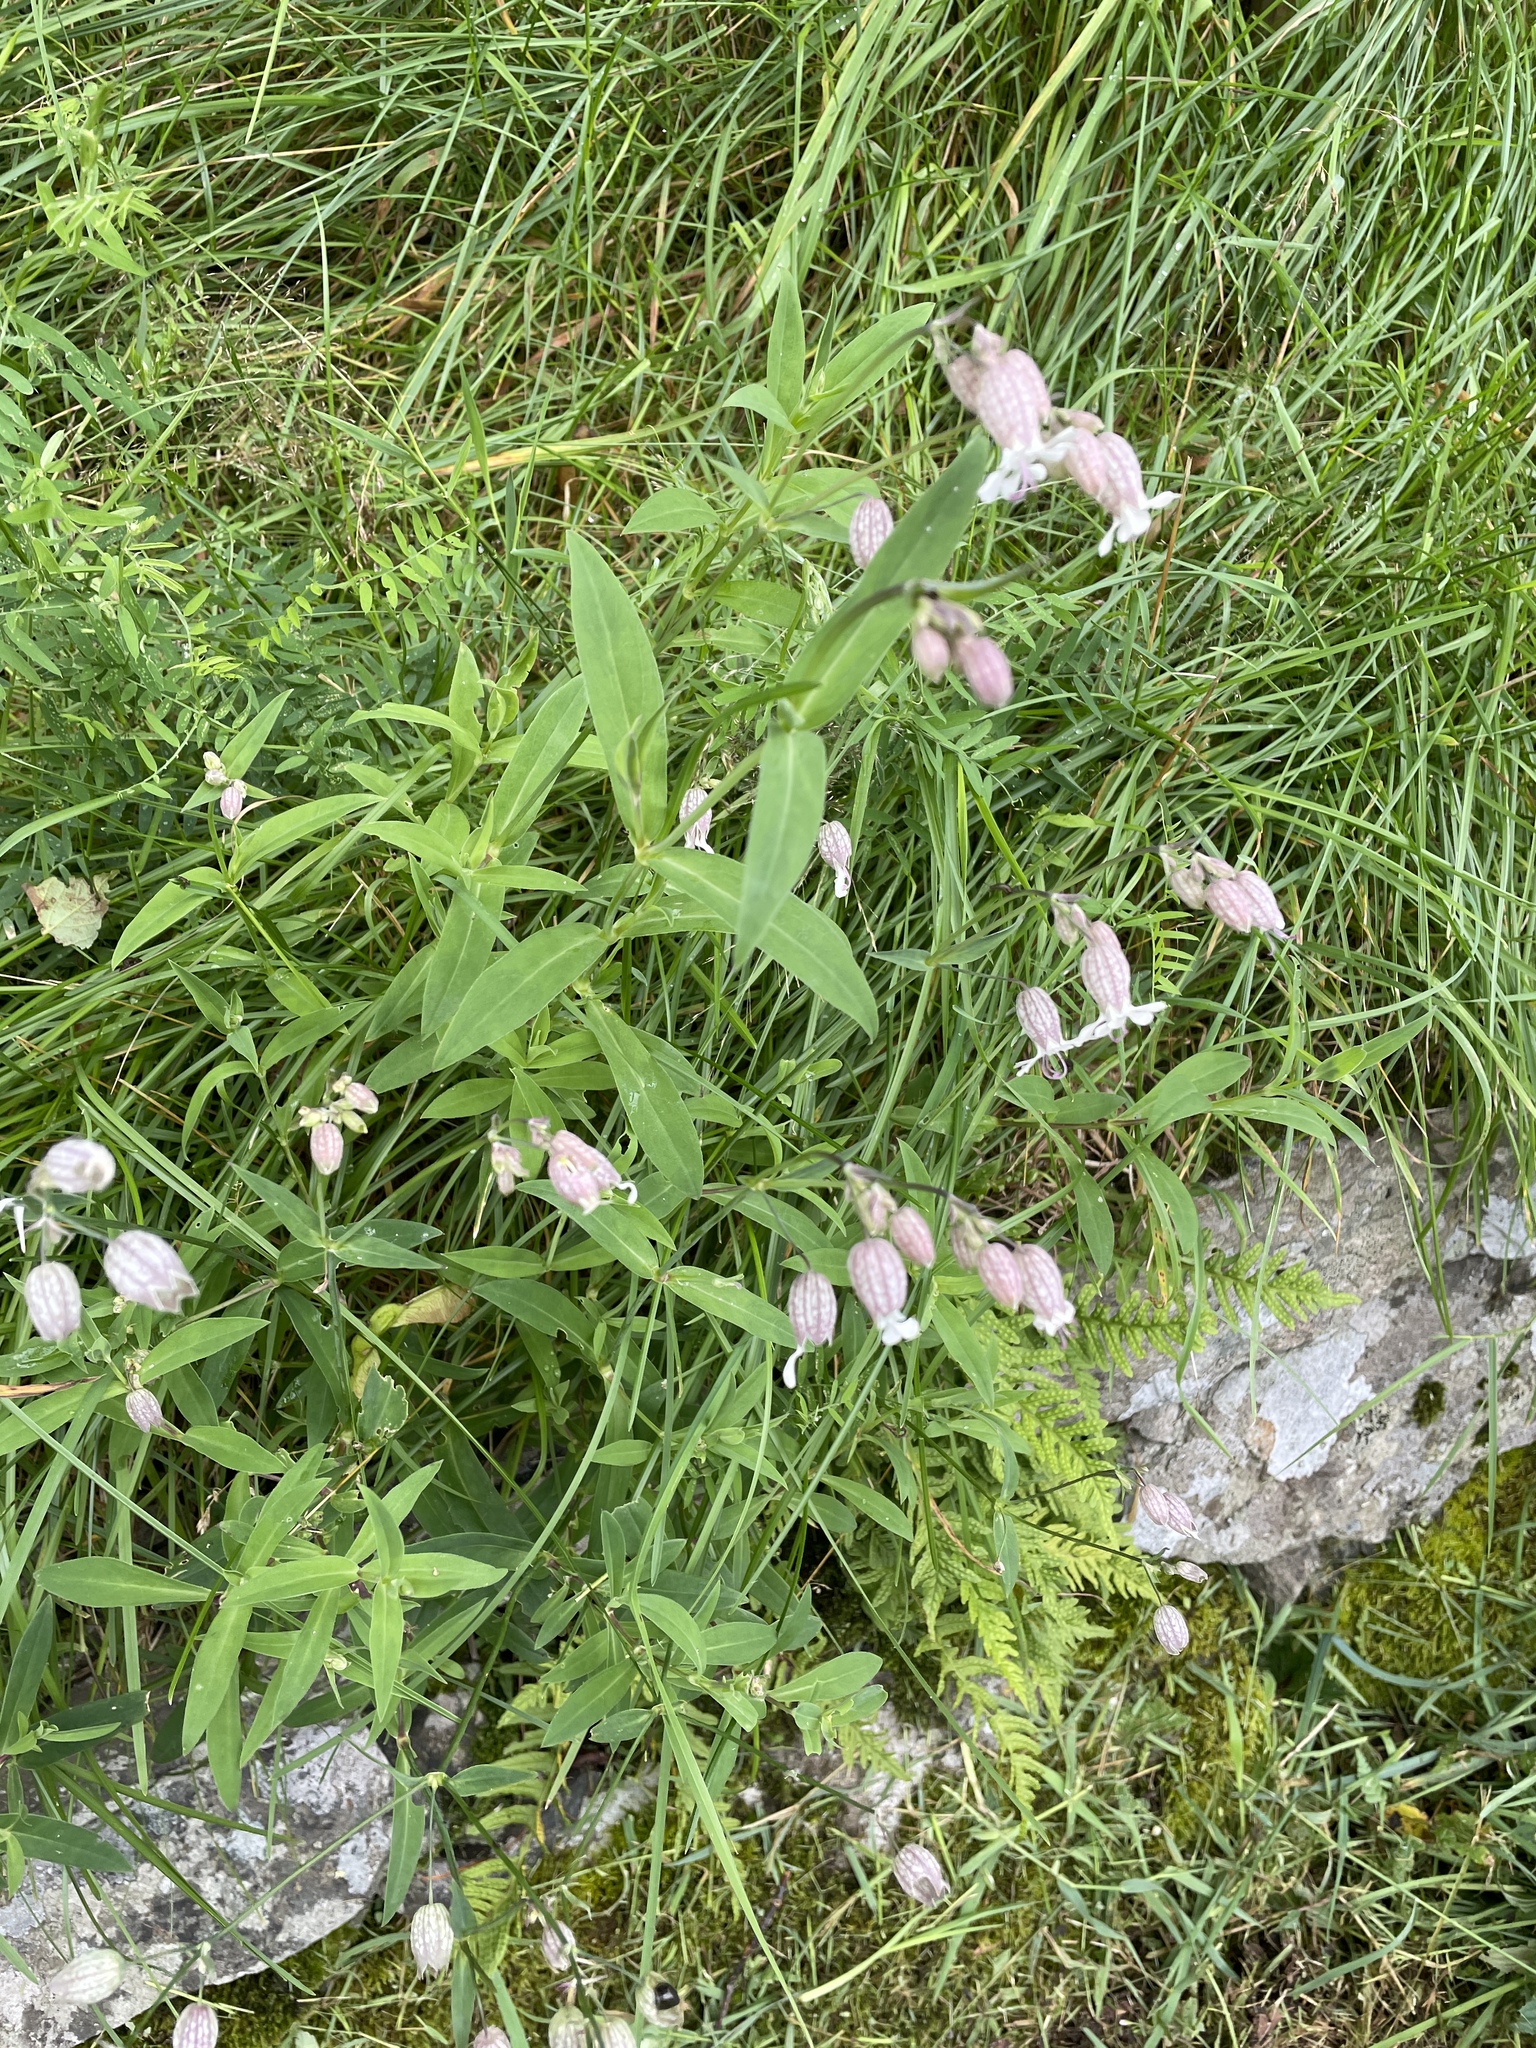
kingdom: Plantae
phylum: Tracheophyta
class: Magnoliopsida
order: Caryophyllales
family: Caryophyllaceae
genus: Silene
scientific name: Silene vulgaris
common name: Bladder campion
